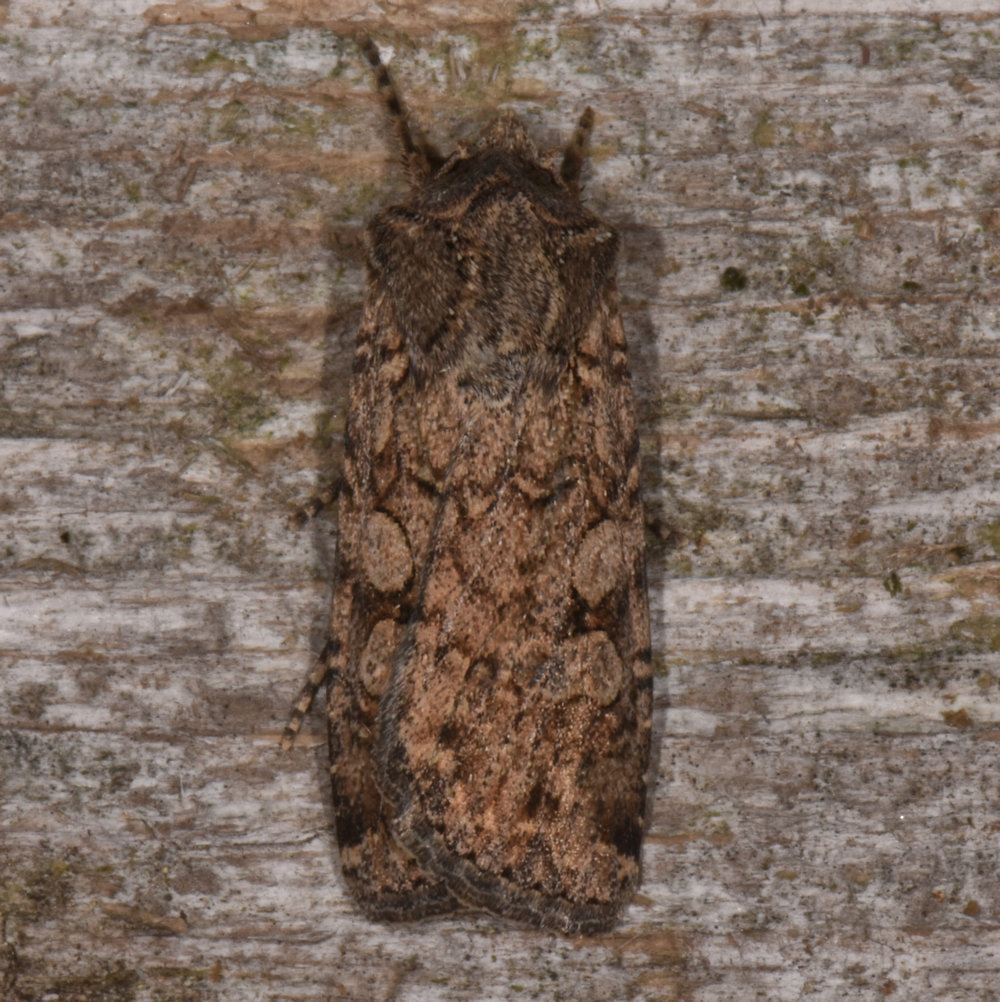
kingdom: Animalia
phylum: Arthropoda
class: Insecta
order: Lepidoptera
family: Noctuidae
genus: Euxoa
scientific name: Euxoa messoria
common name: Darksided cutworm
